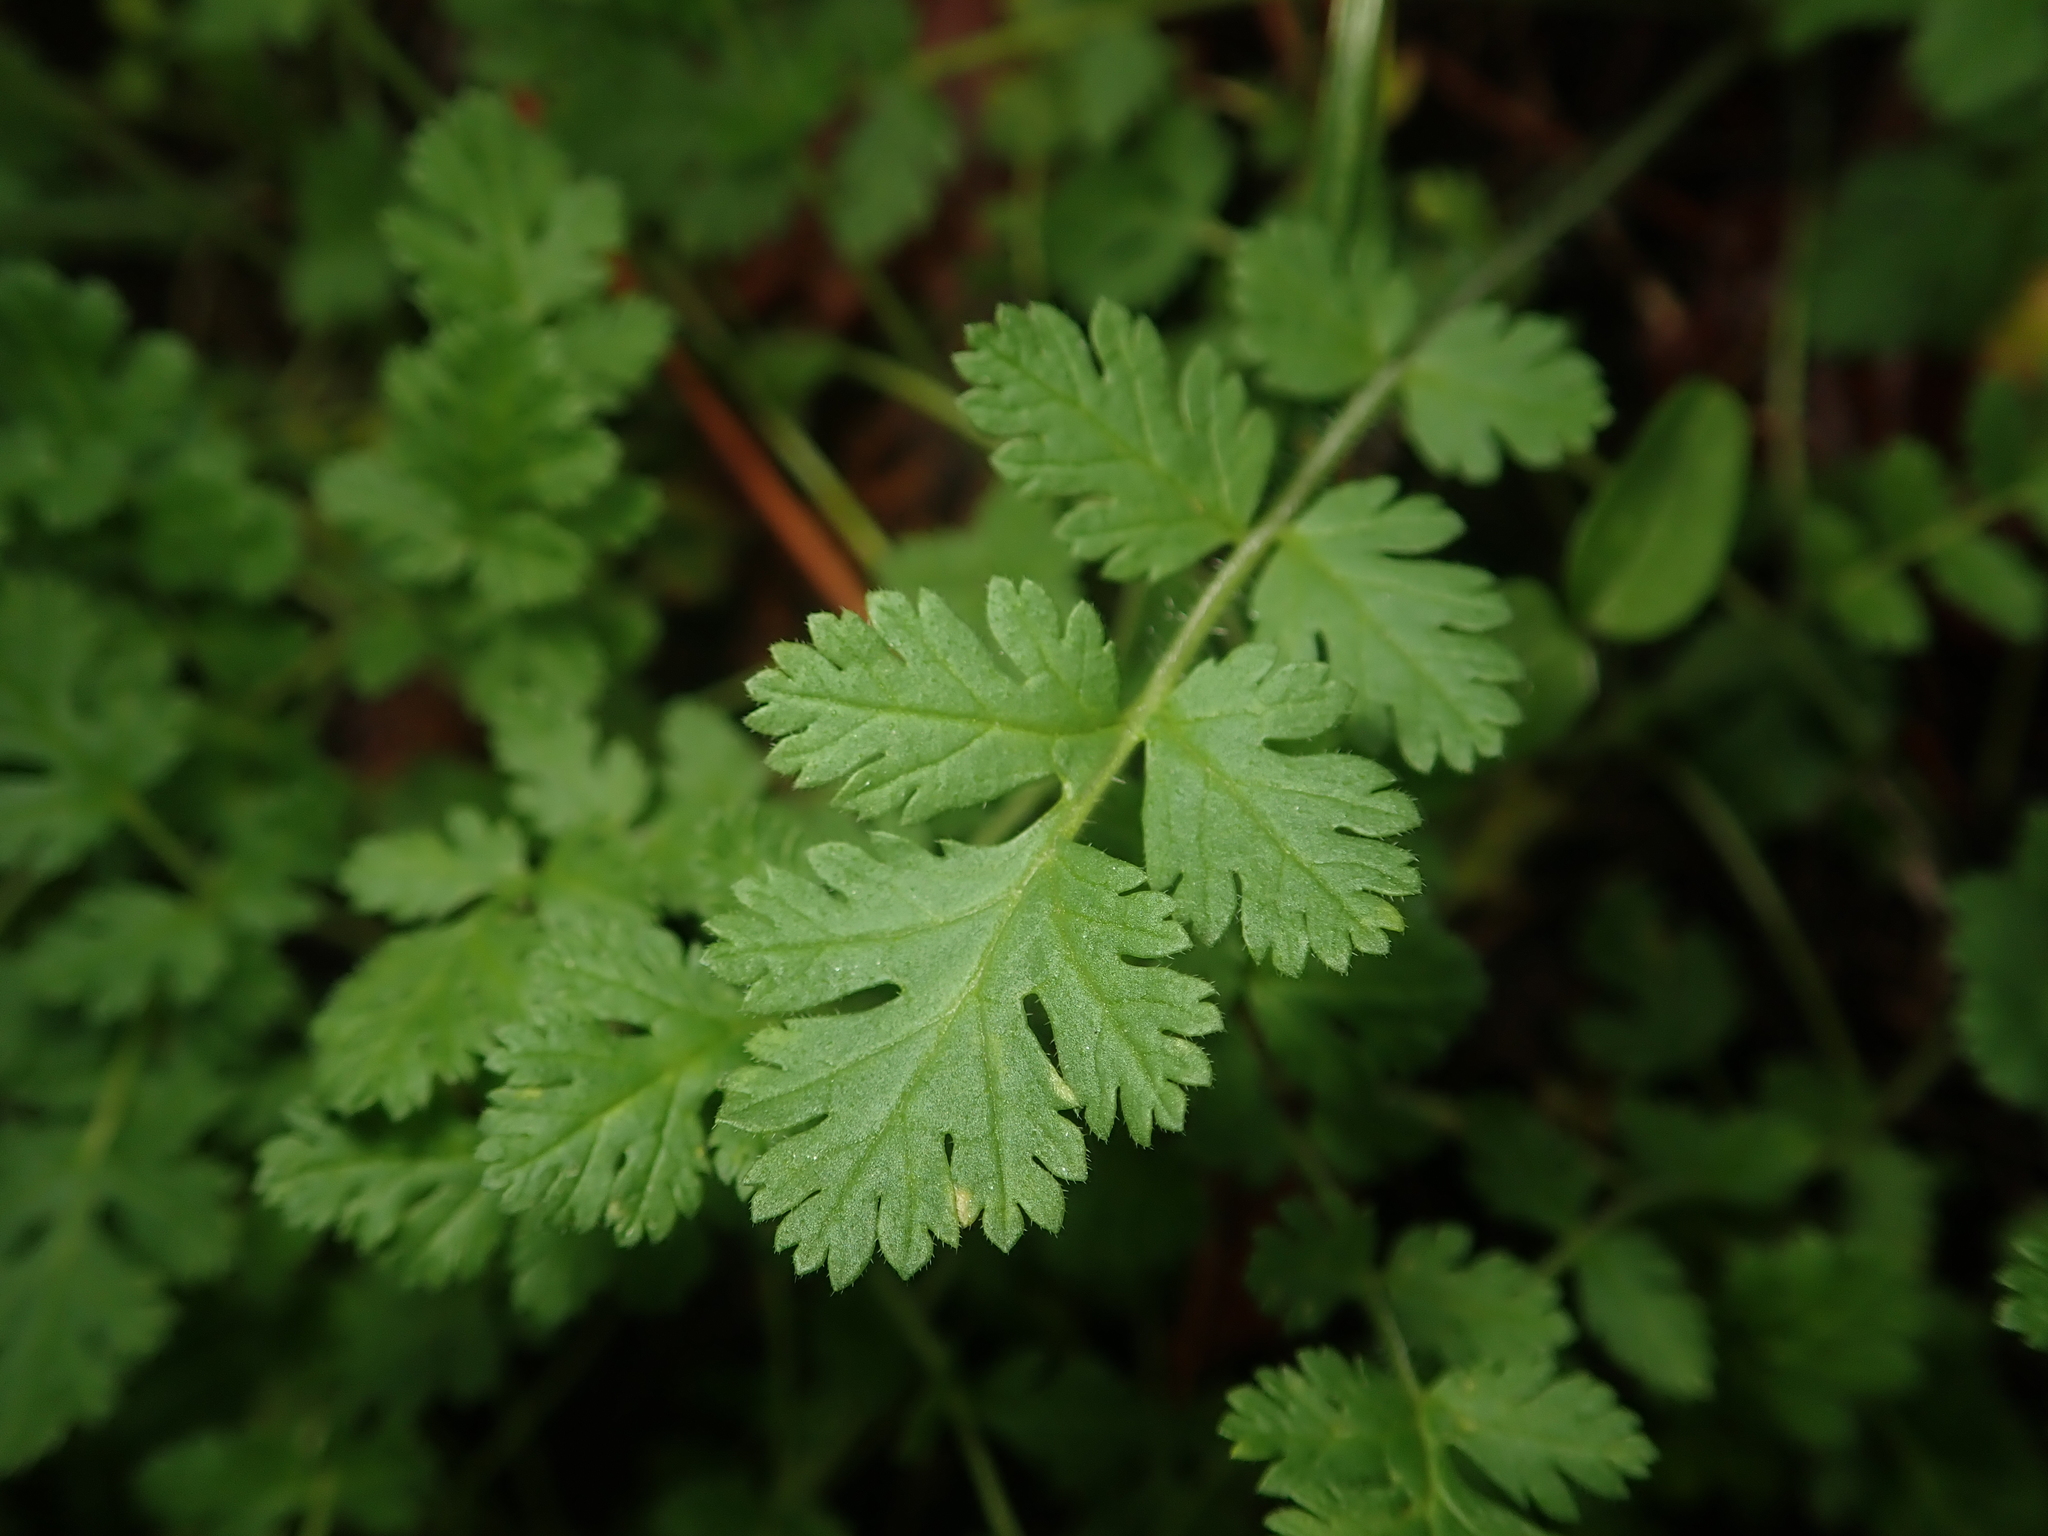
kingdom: Plantae
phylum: Tracheophyta
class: Magnoliopsida
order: Geraniales
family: Geraniaceae
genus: Erodium
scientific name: Erodium cicutarium
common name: Common stork's-bill
